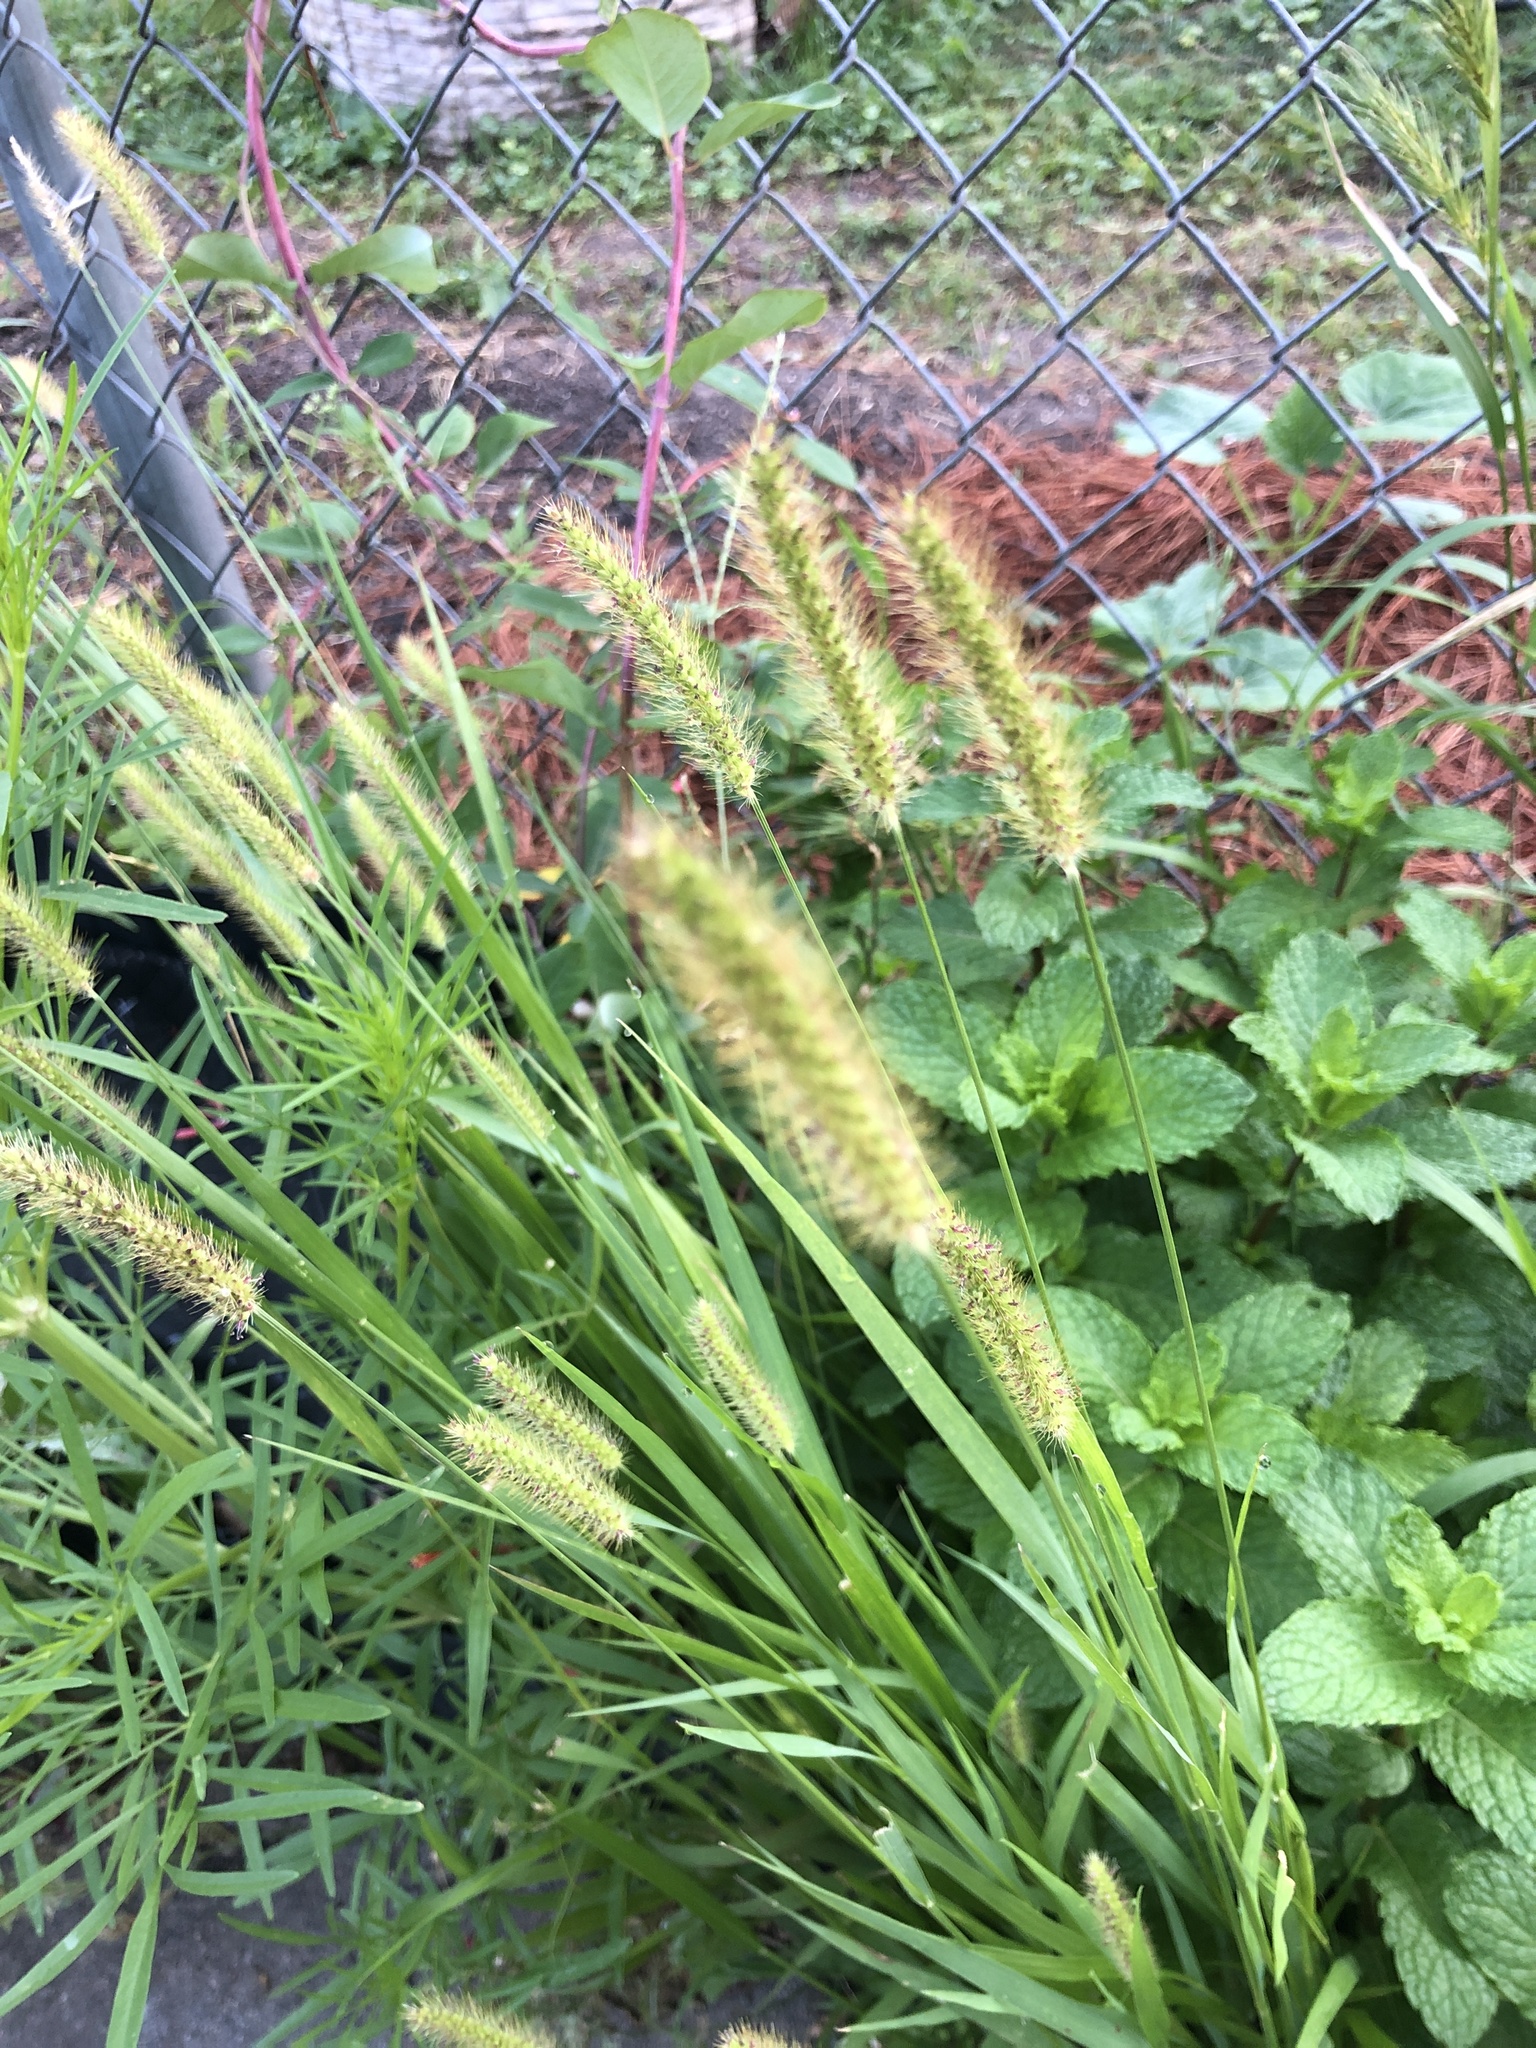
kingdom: Plantae
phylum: Tracheophyta
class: Liliopsida
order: Poales
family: Poaceae
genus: Setaria
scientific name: Setaria parviflora
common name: Knotroot bristle-grass
